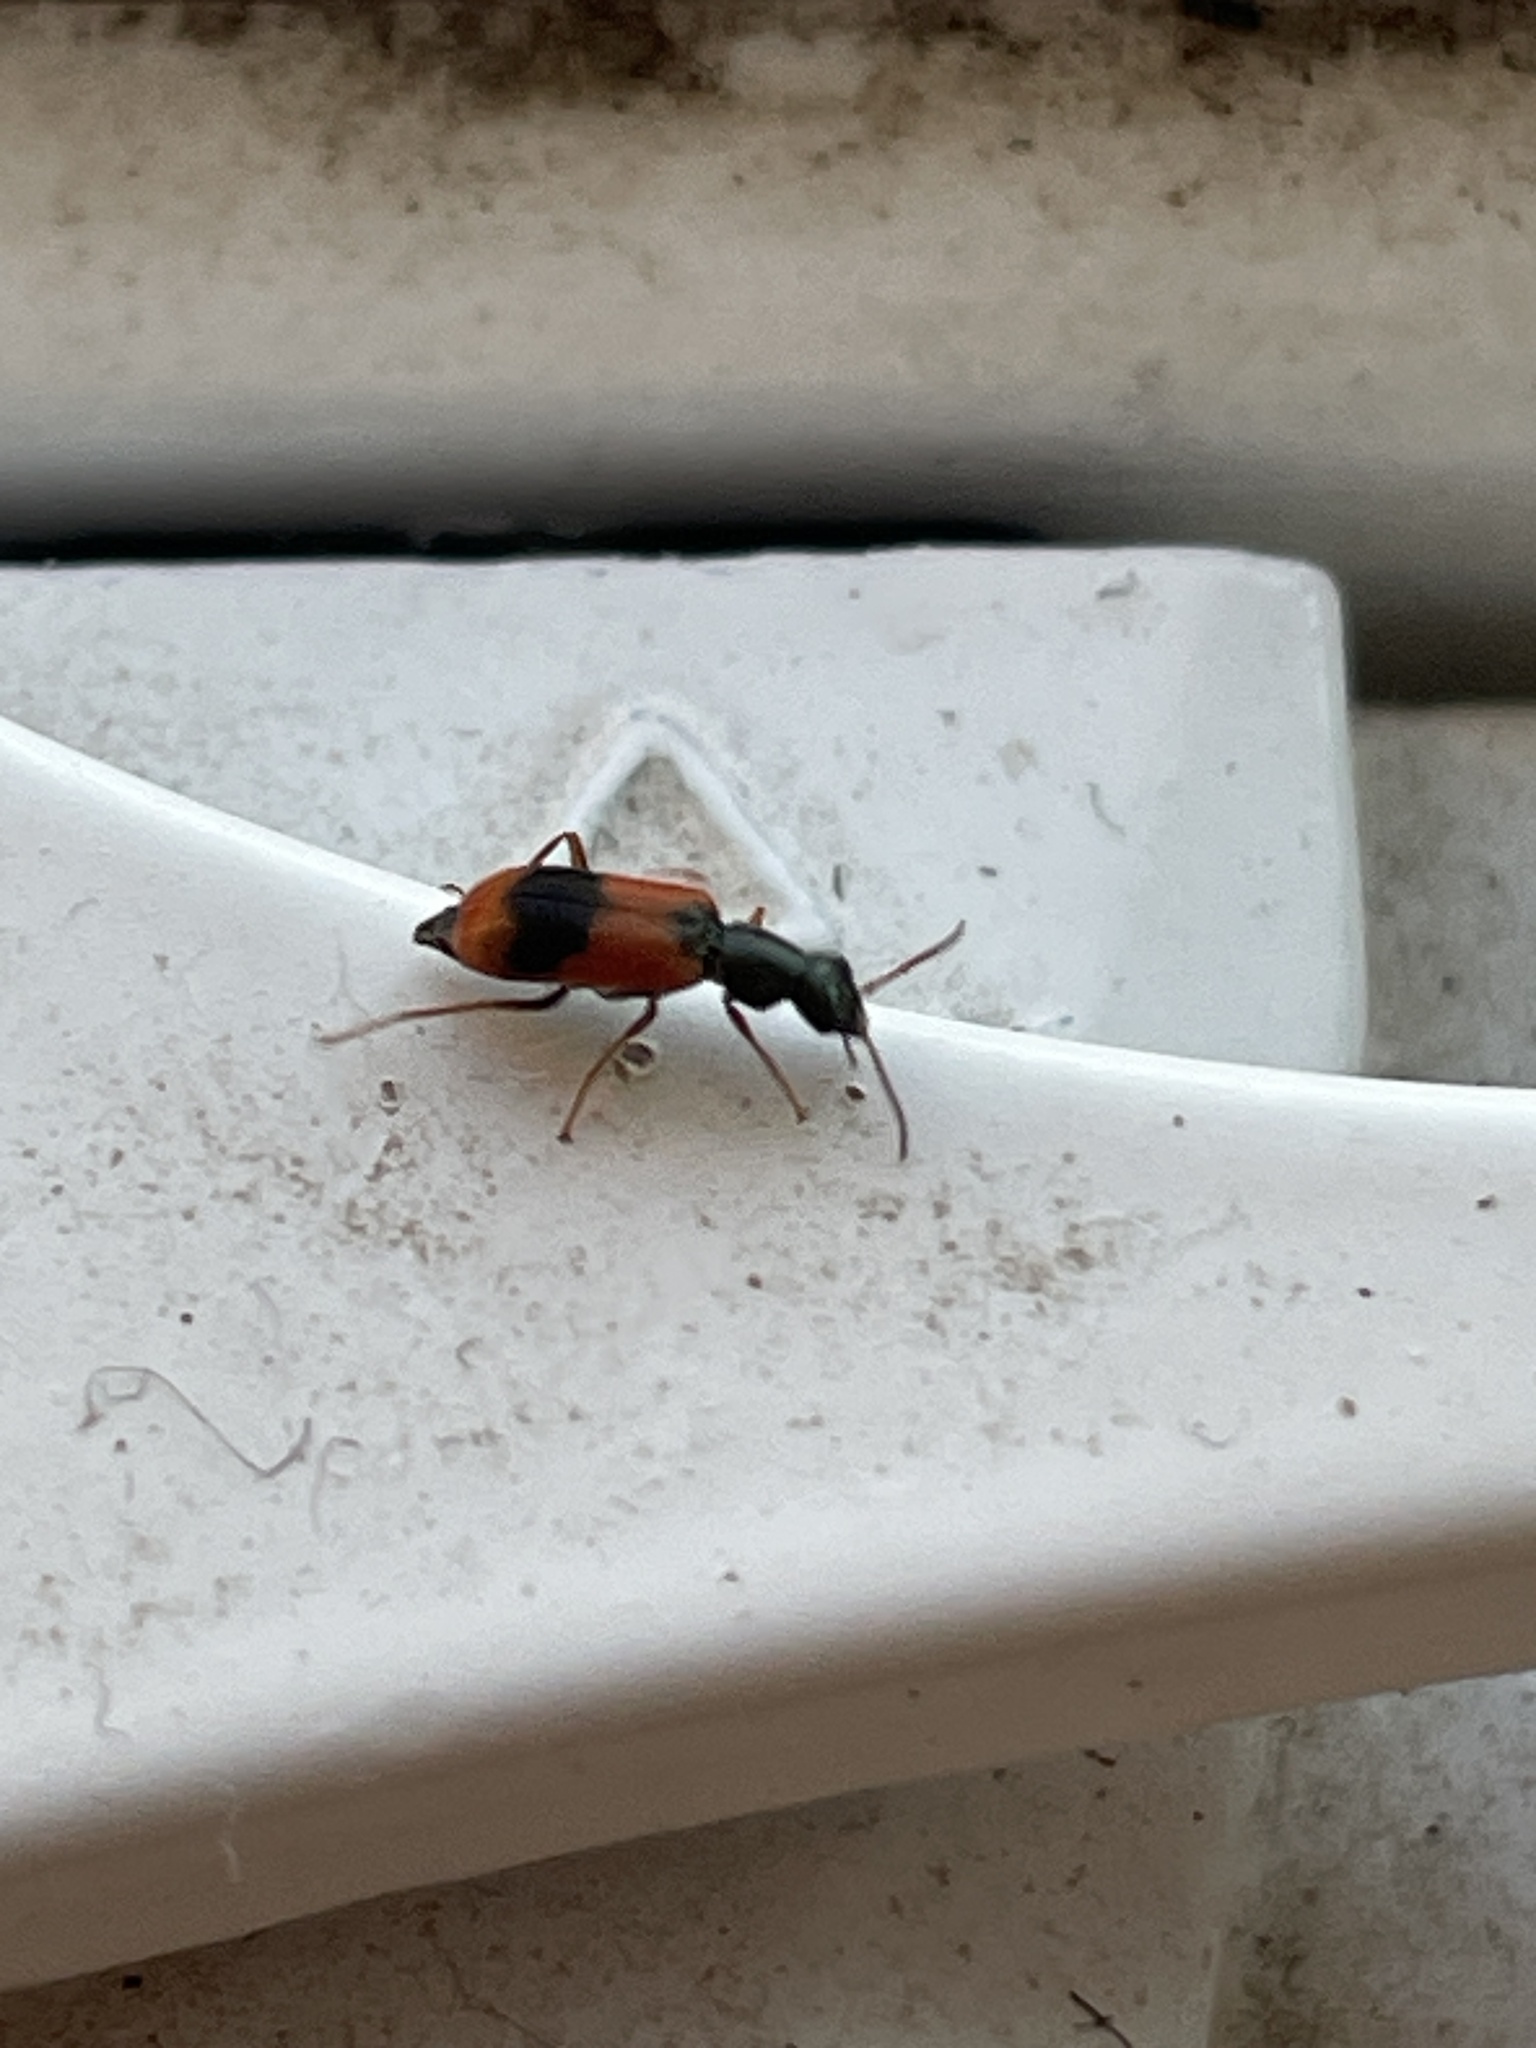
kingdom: Animalia
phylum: Arthropoda
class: Insecta
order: Coleoptera
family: Melyridae
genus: Anthocomus
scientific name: Anthocomus equestris
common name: Black-banded soft-winged flower beetle
